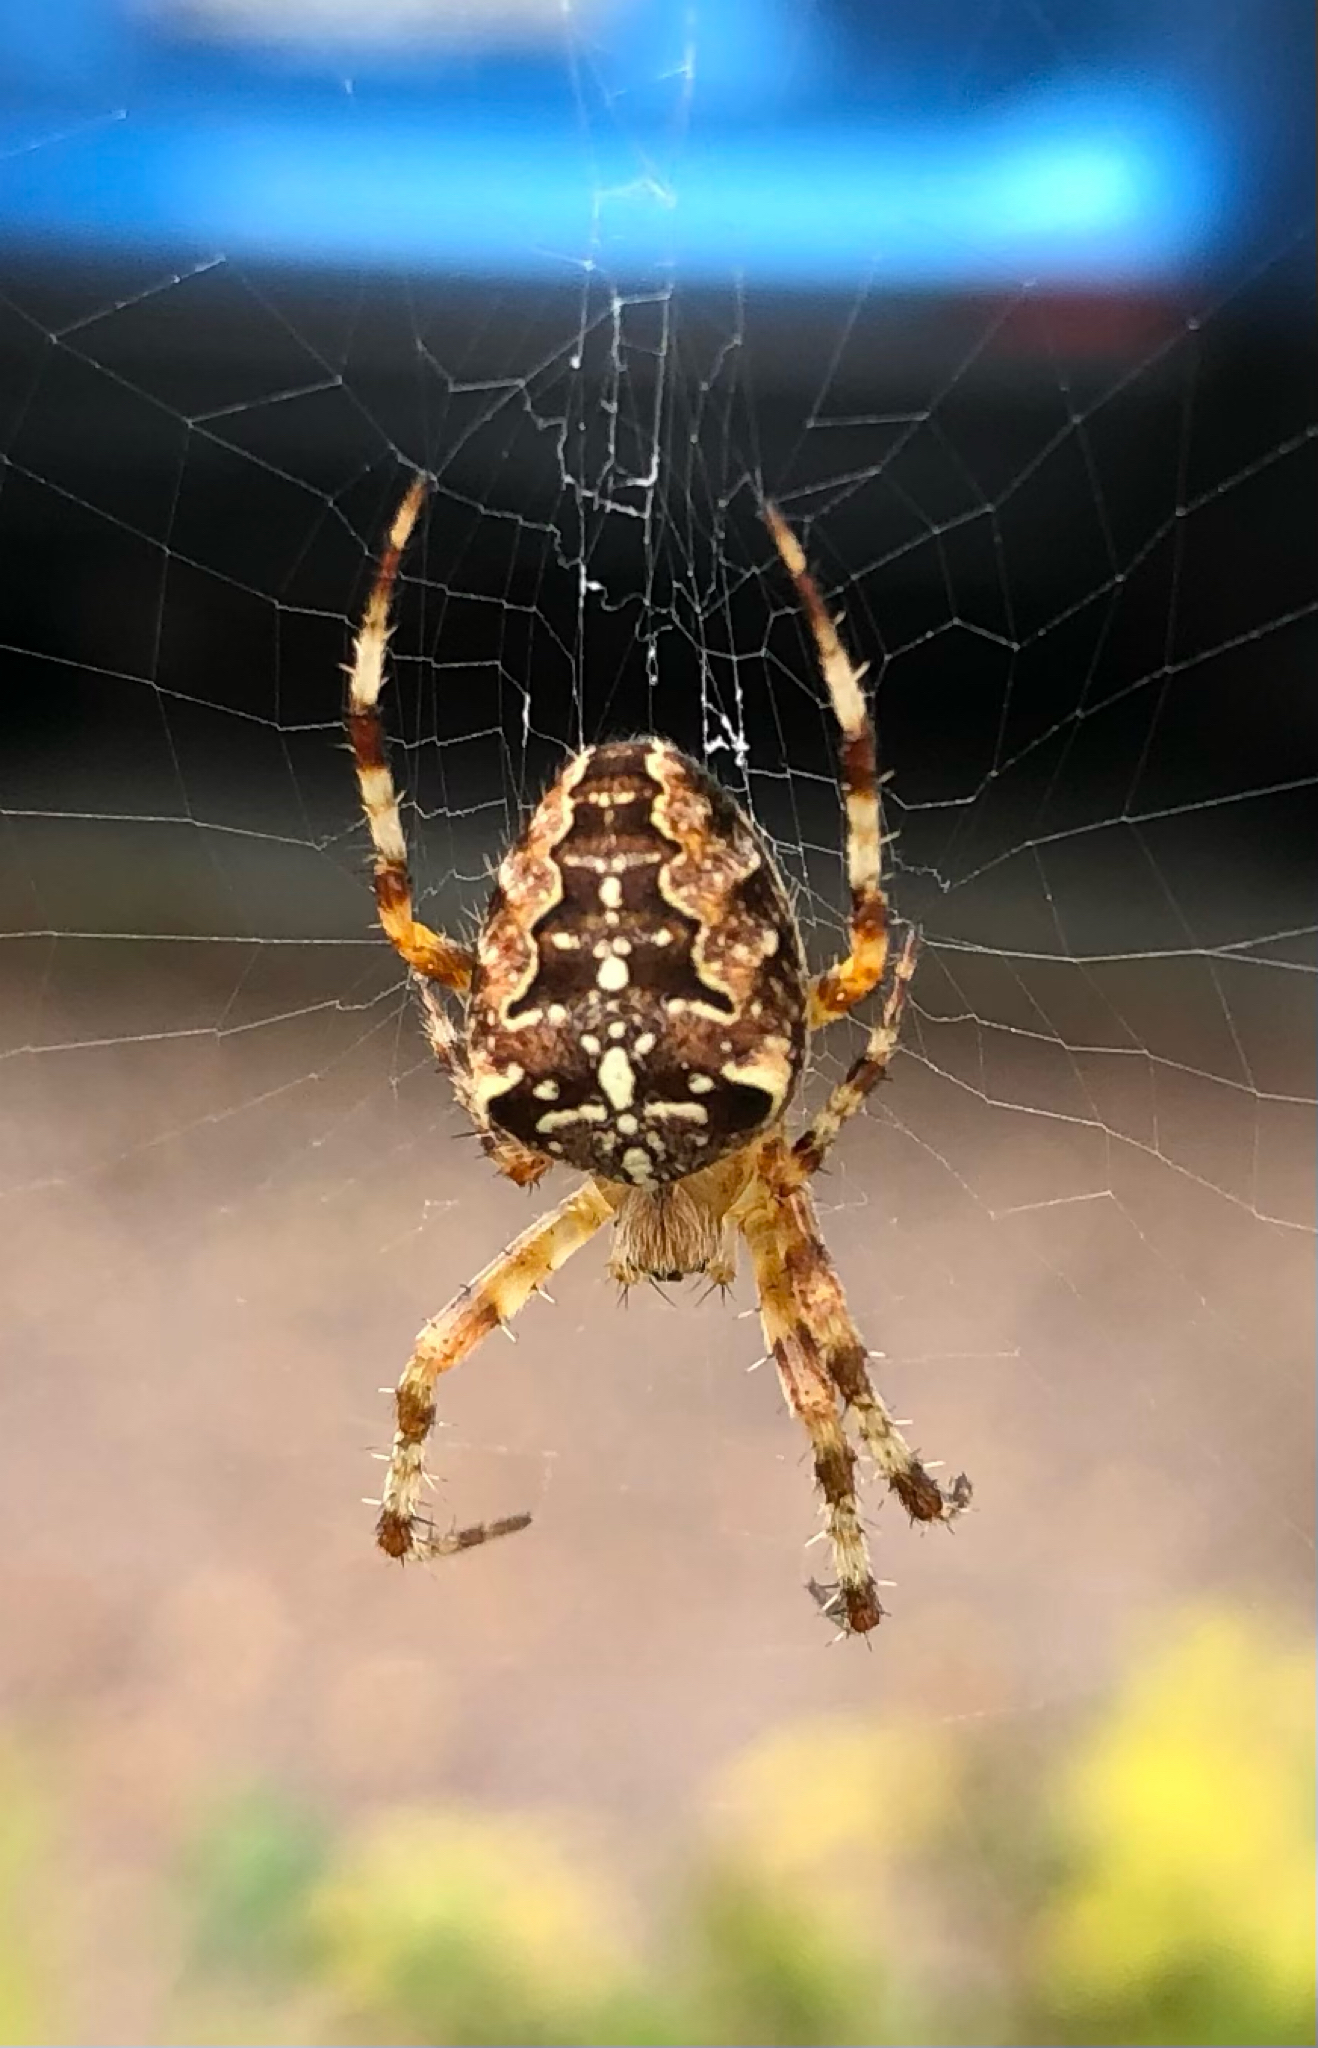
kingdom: Animalia
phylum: Arthropoda
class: Arachnida
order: Araneae
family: Araneidae
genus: Araneus
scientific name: Araneus diadematus
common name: Cross orbweaver
